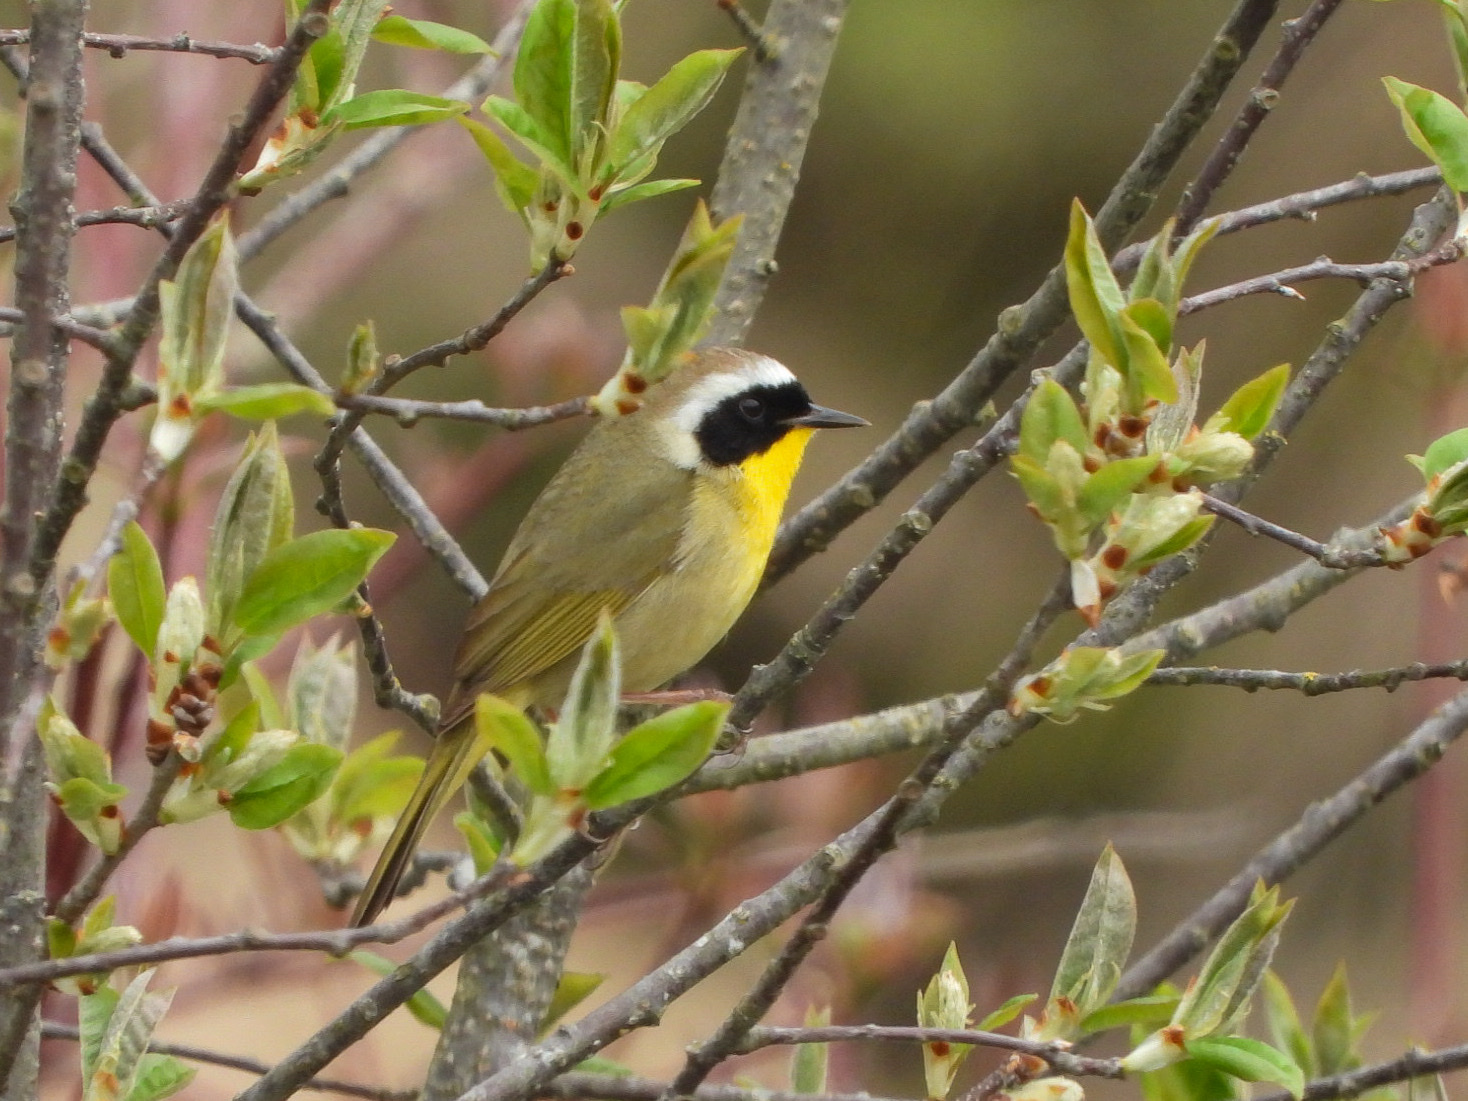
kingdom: Animalia
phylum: Chordata
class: Aves
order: Passeriformes
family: Parulidae
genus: Geothlypis
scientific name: Geothlypis trichas
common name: Common yellowthroat
